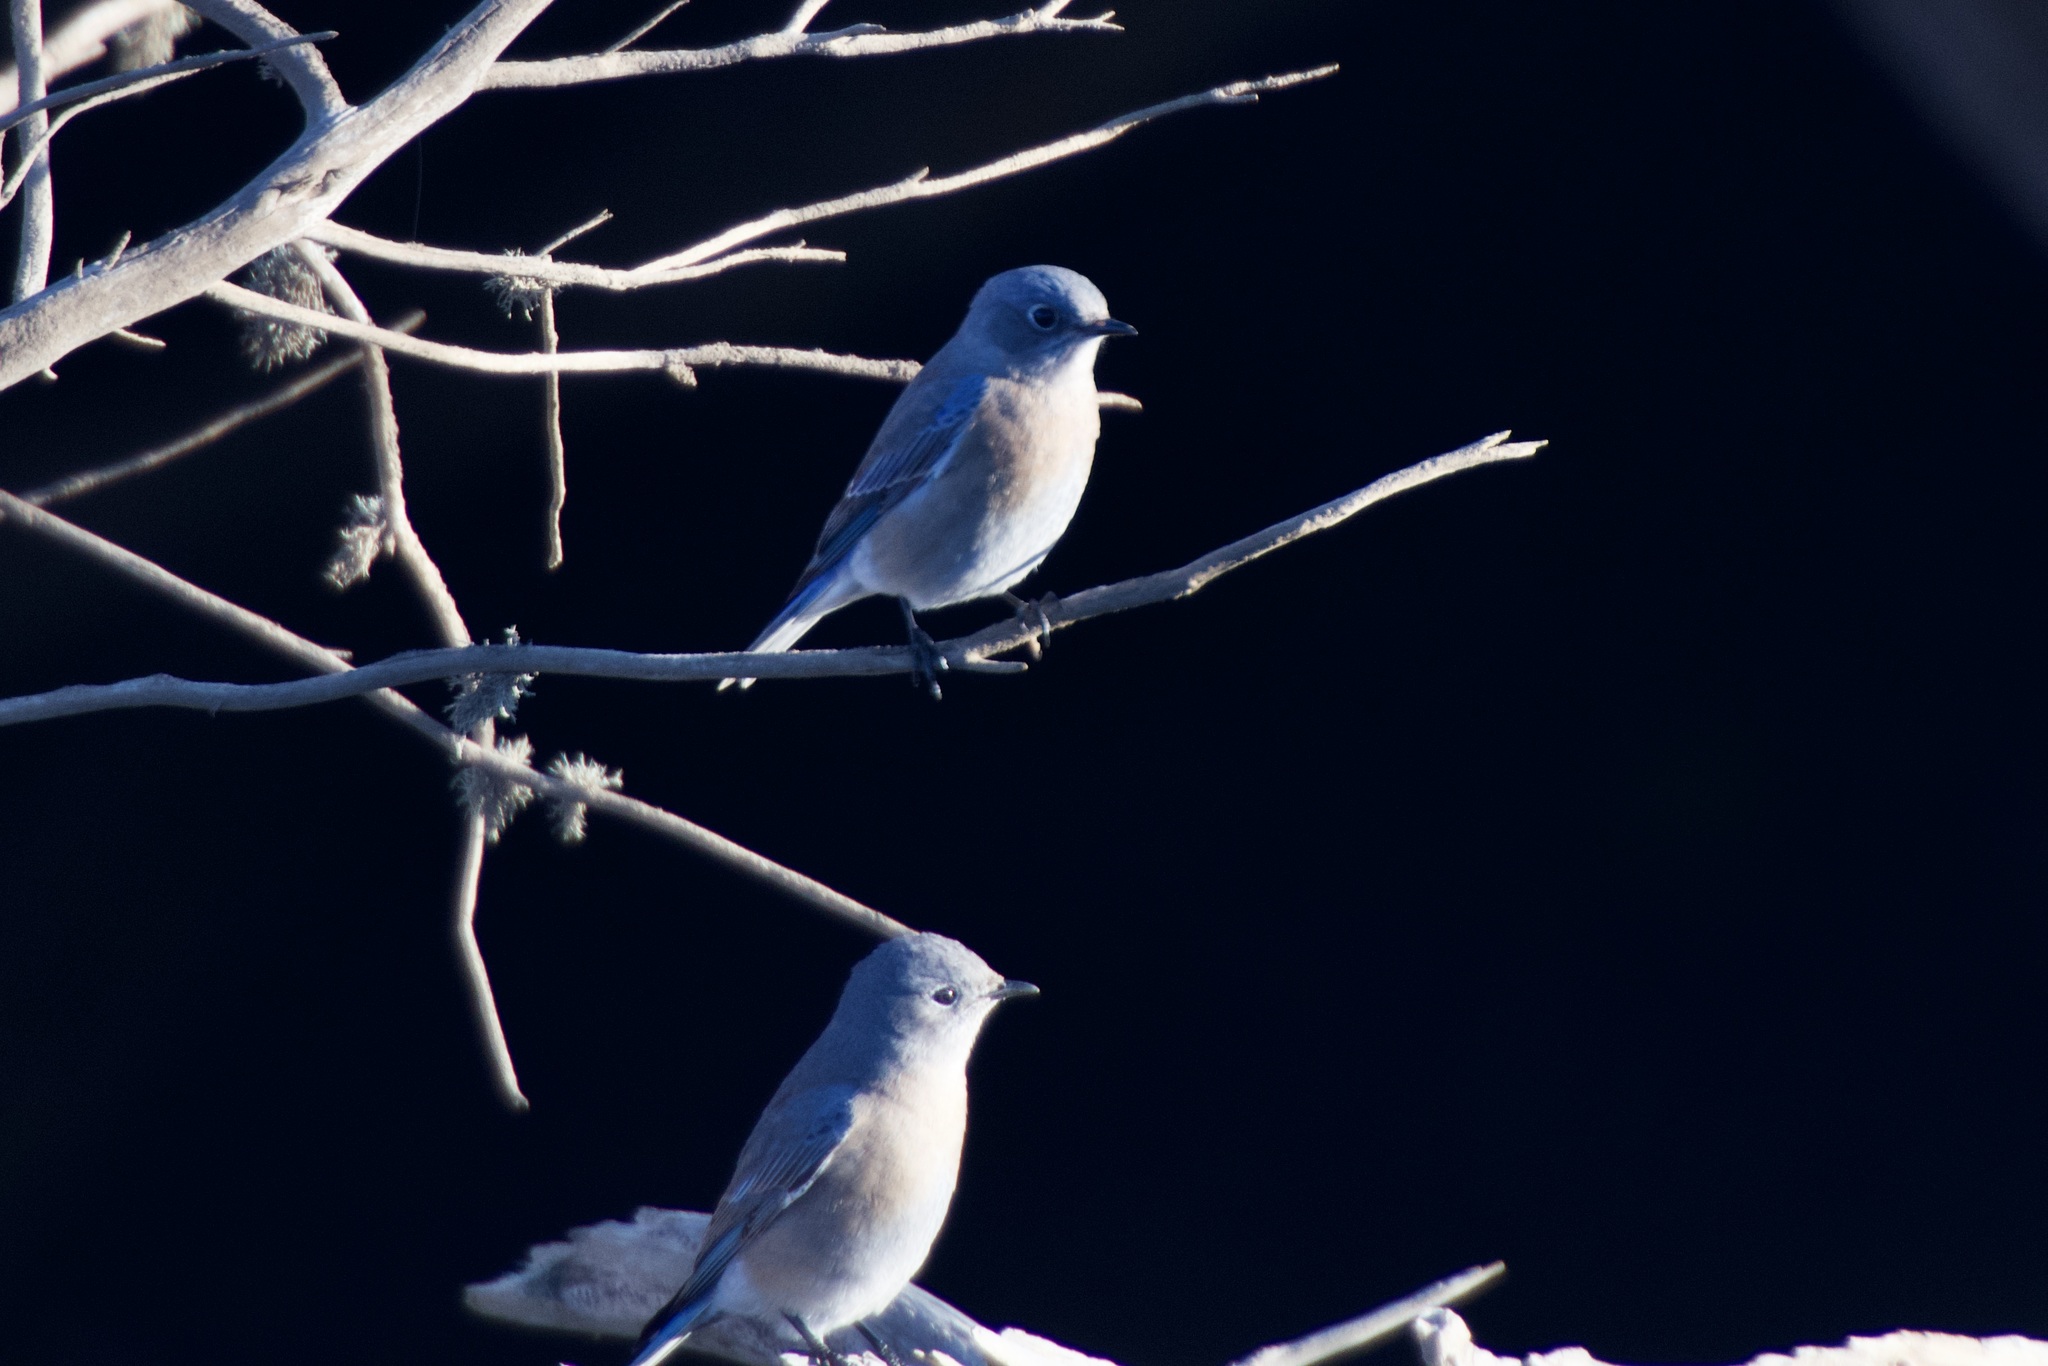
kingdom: Animalia
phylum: Chordata
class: Aves
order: Passeriformes
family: Turdidae
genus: Sialia
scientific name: Sialia mexicana
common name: Western bluebird
